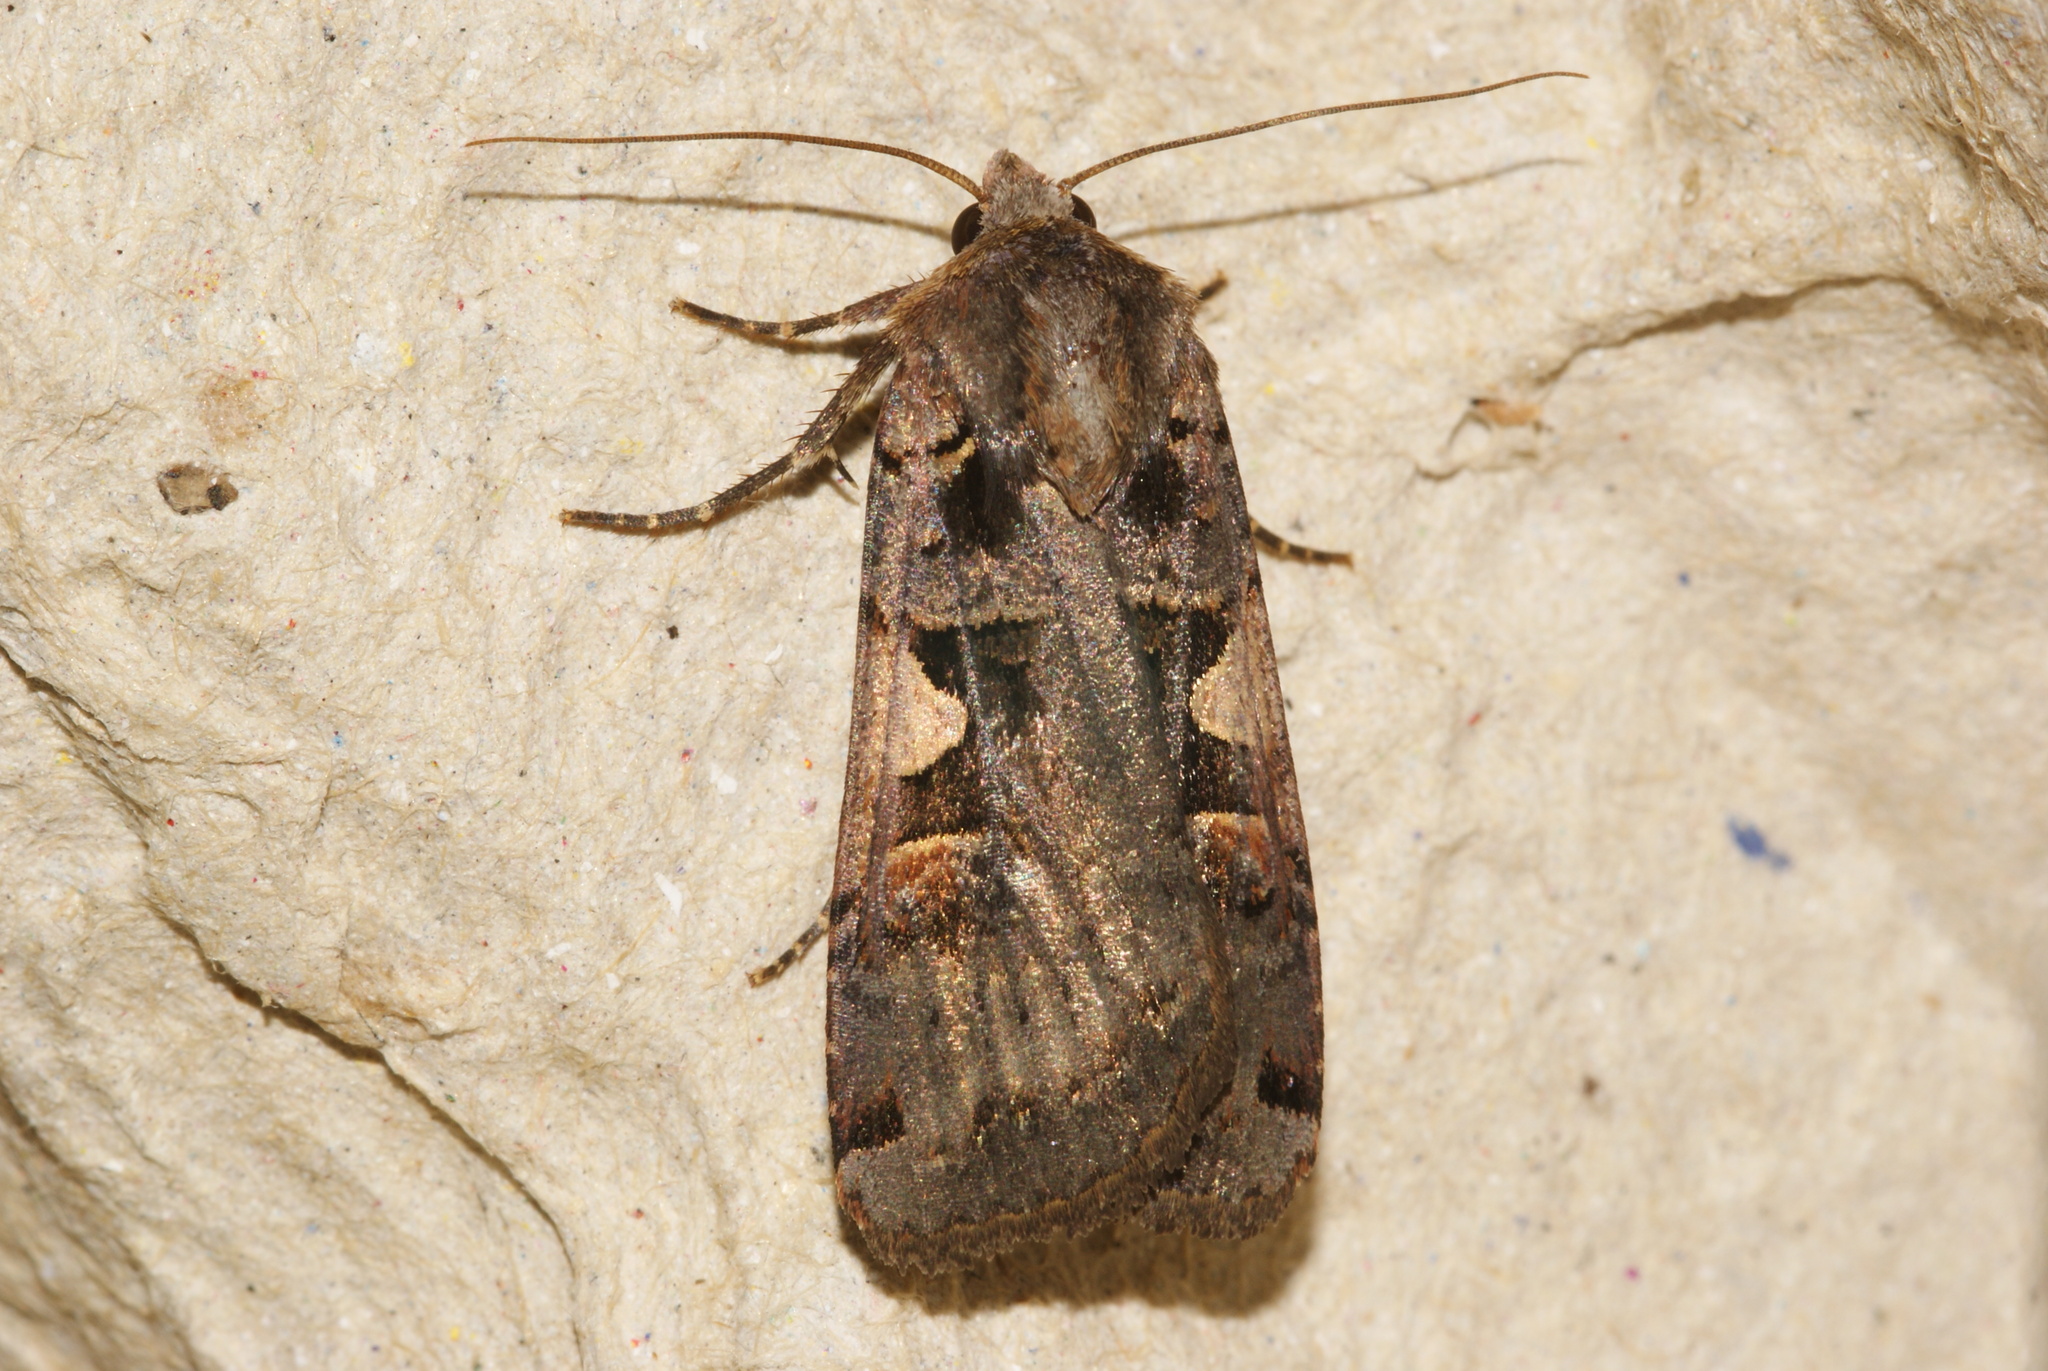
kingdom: Animalia
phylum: Arthropoda
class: Insecta
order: Lepidoptera
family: Noctuidae
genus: Xestia
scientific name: Xestia c-nigrum
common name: Setaceous hebrew character
